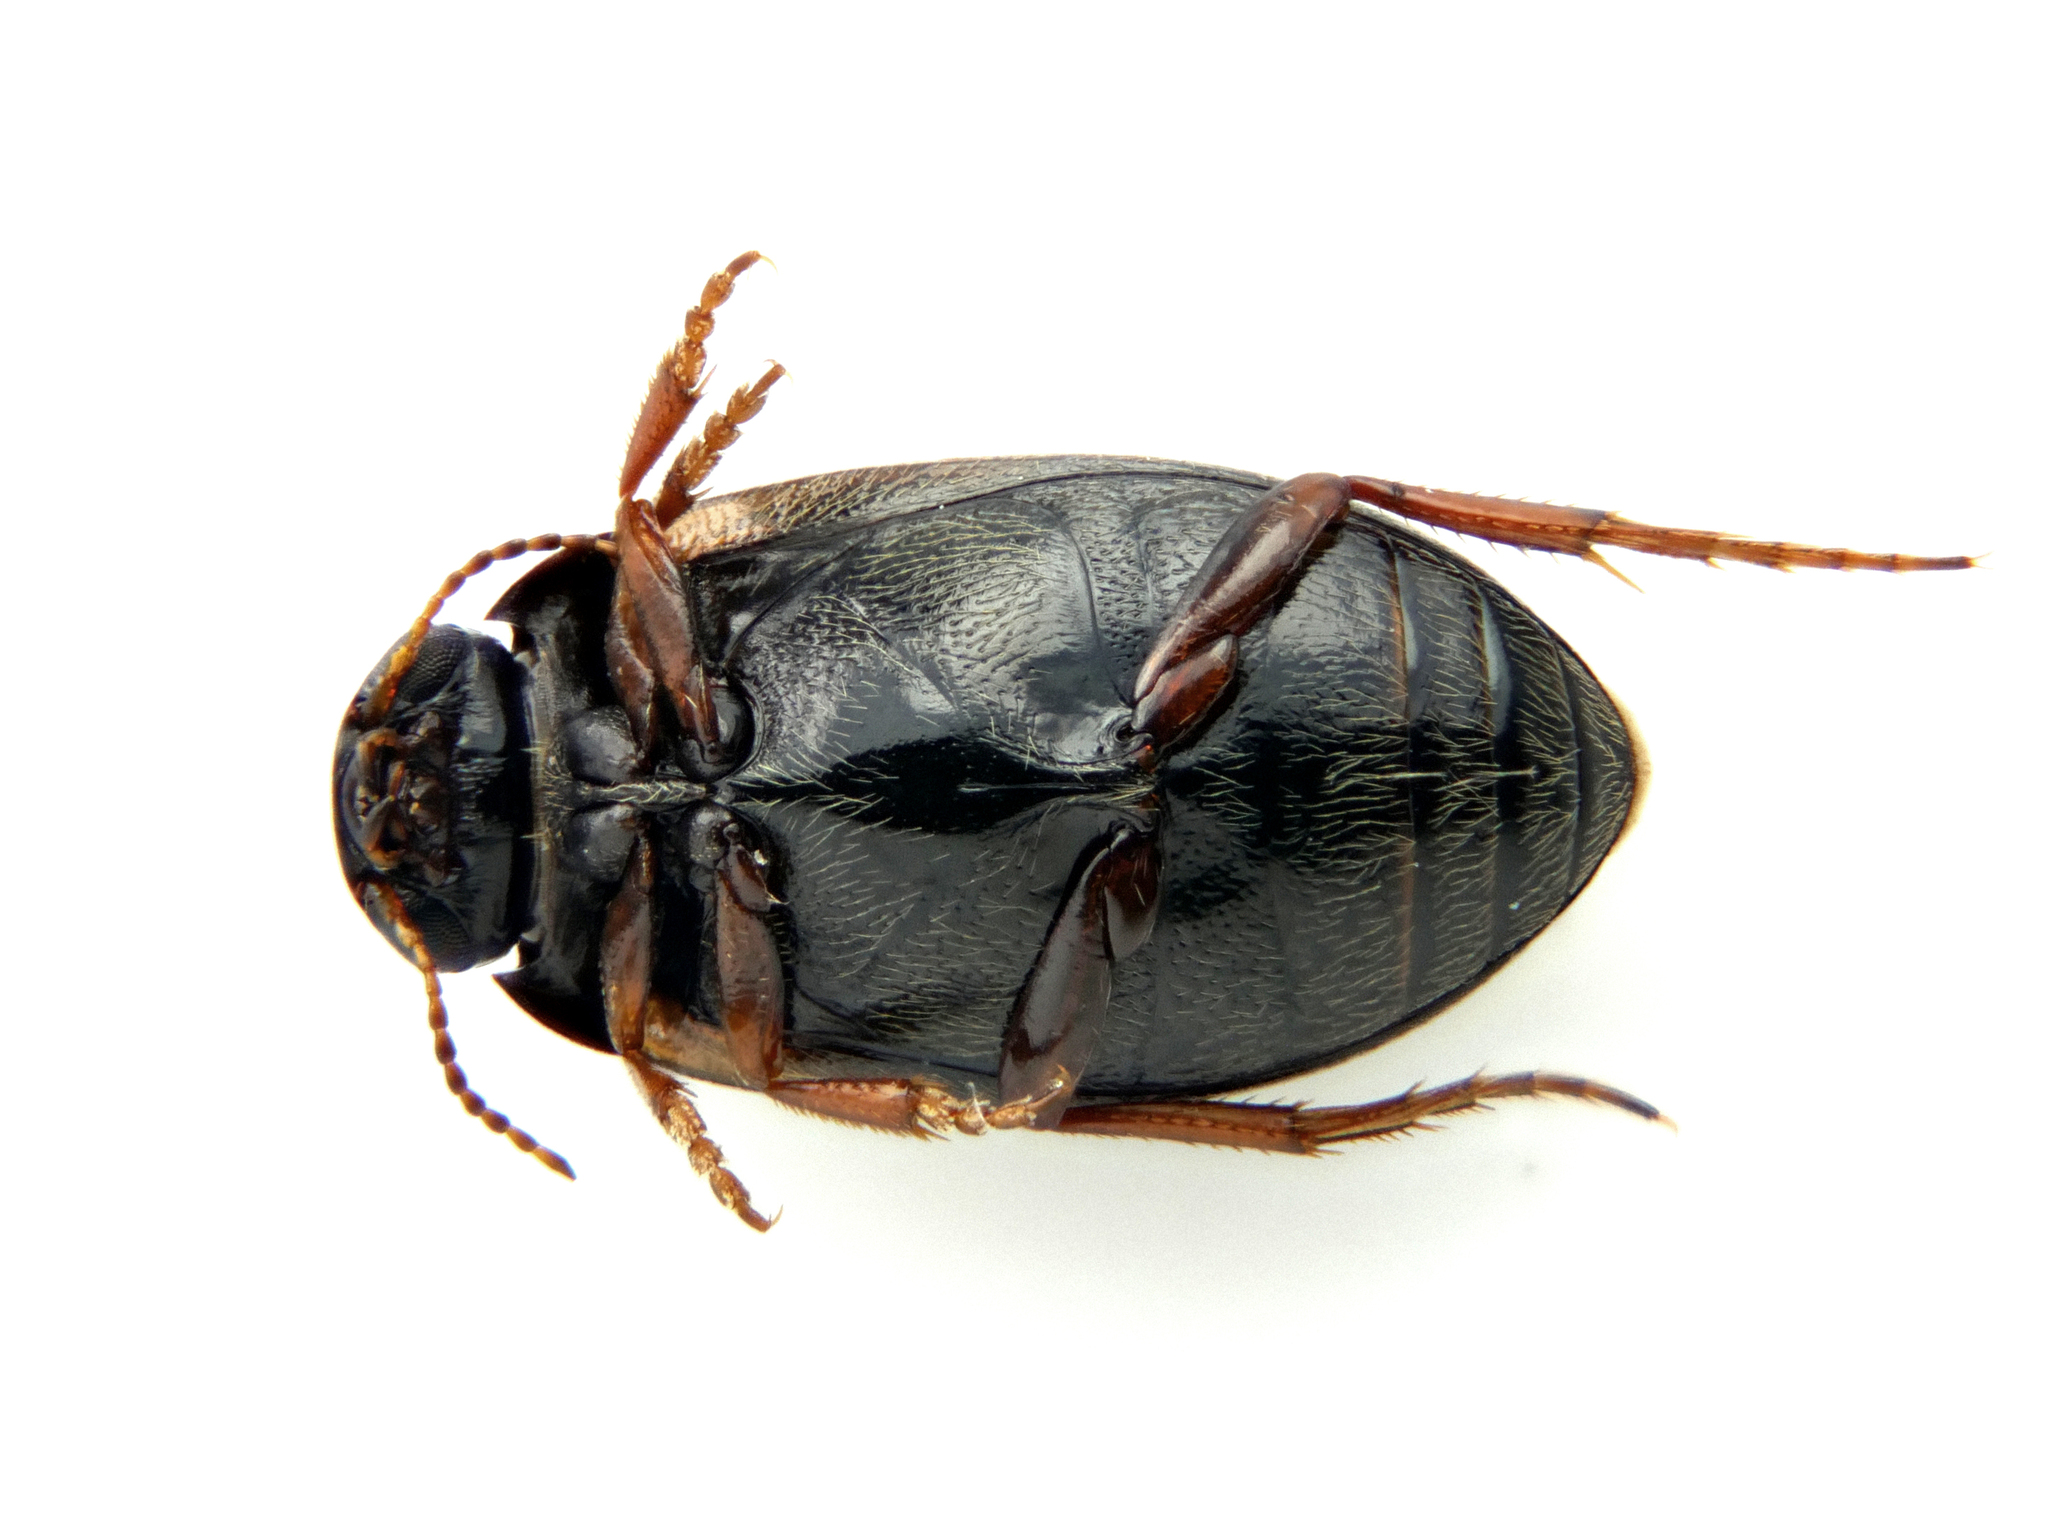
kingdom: Animalia
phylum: Arthropoda
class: Insecta
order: Coleoptera
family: Dytiscidae
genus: Hydroporus
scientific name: Hydroporus planus
